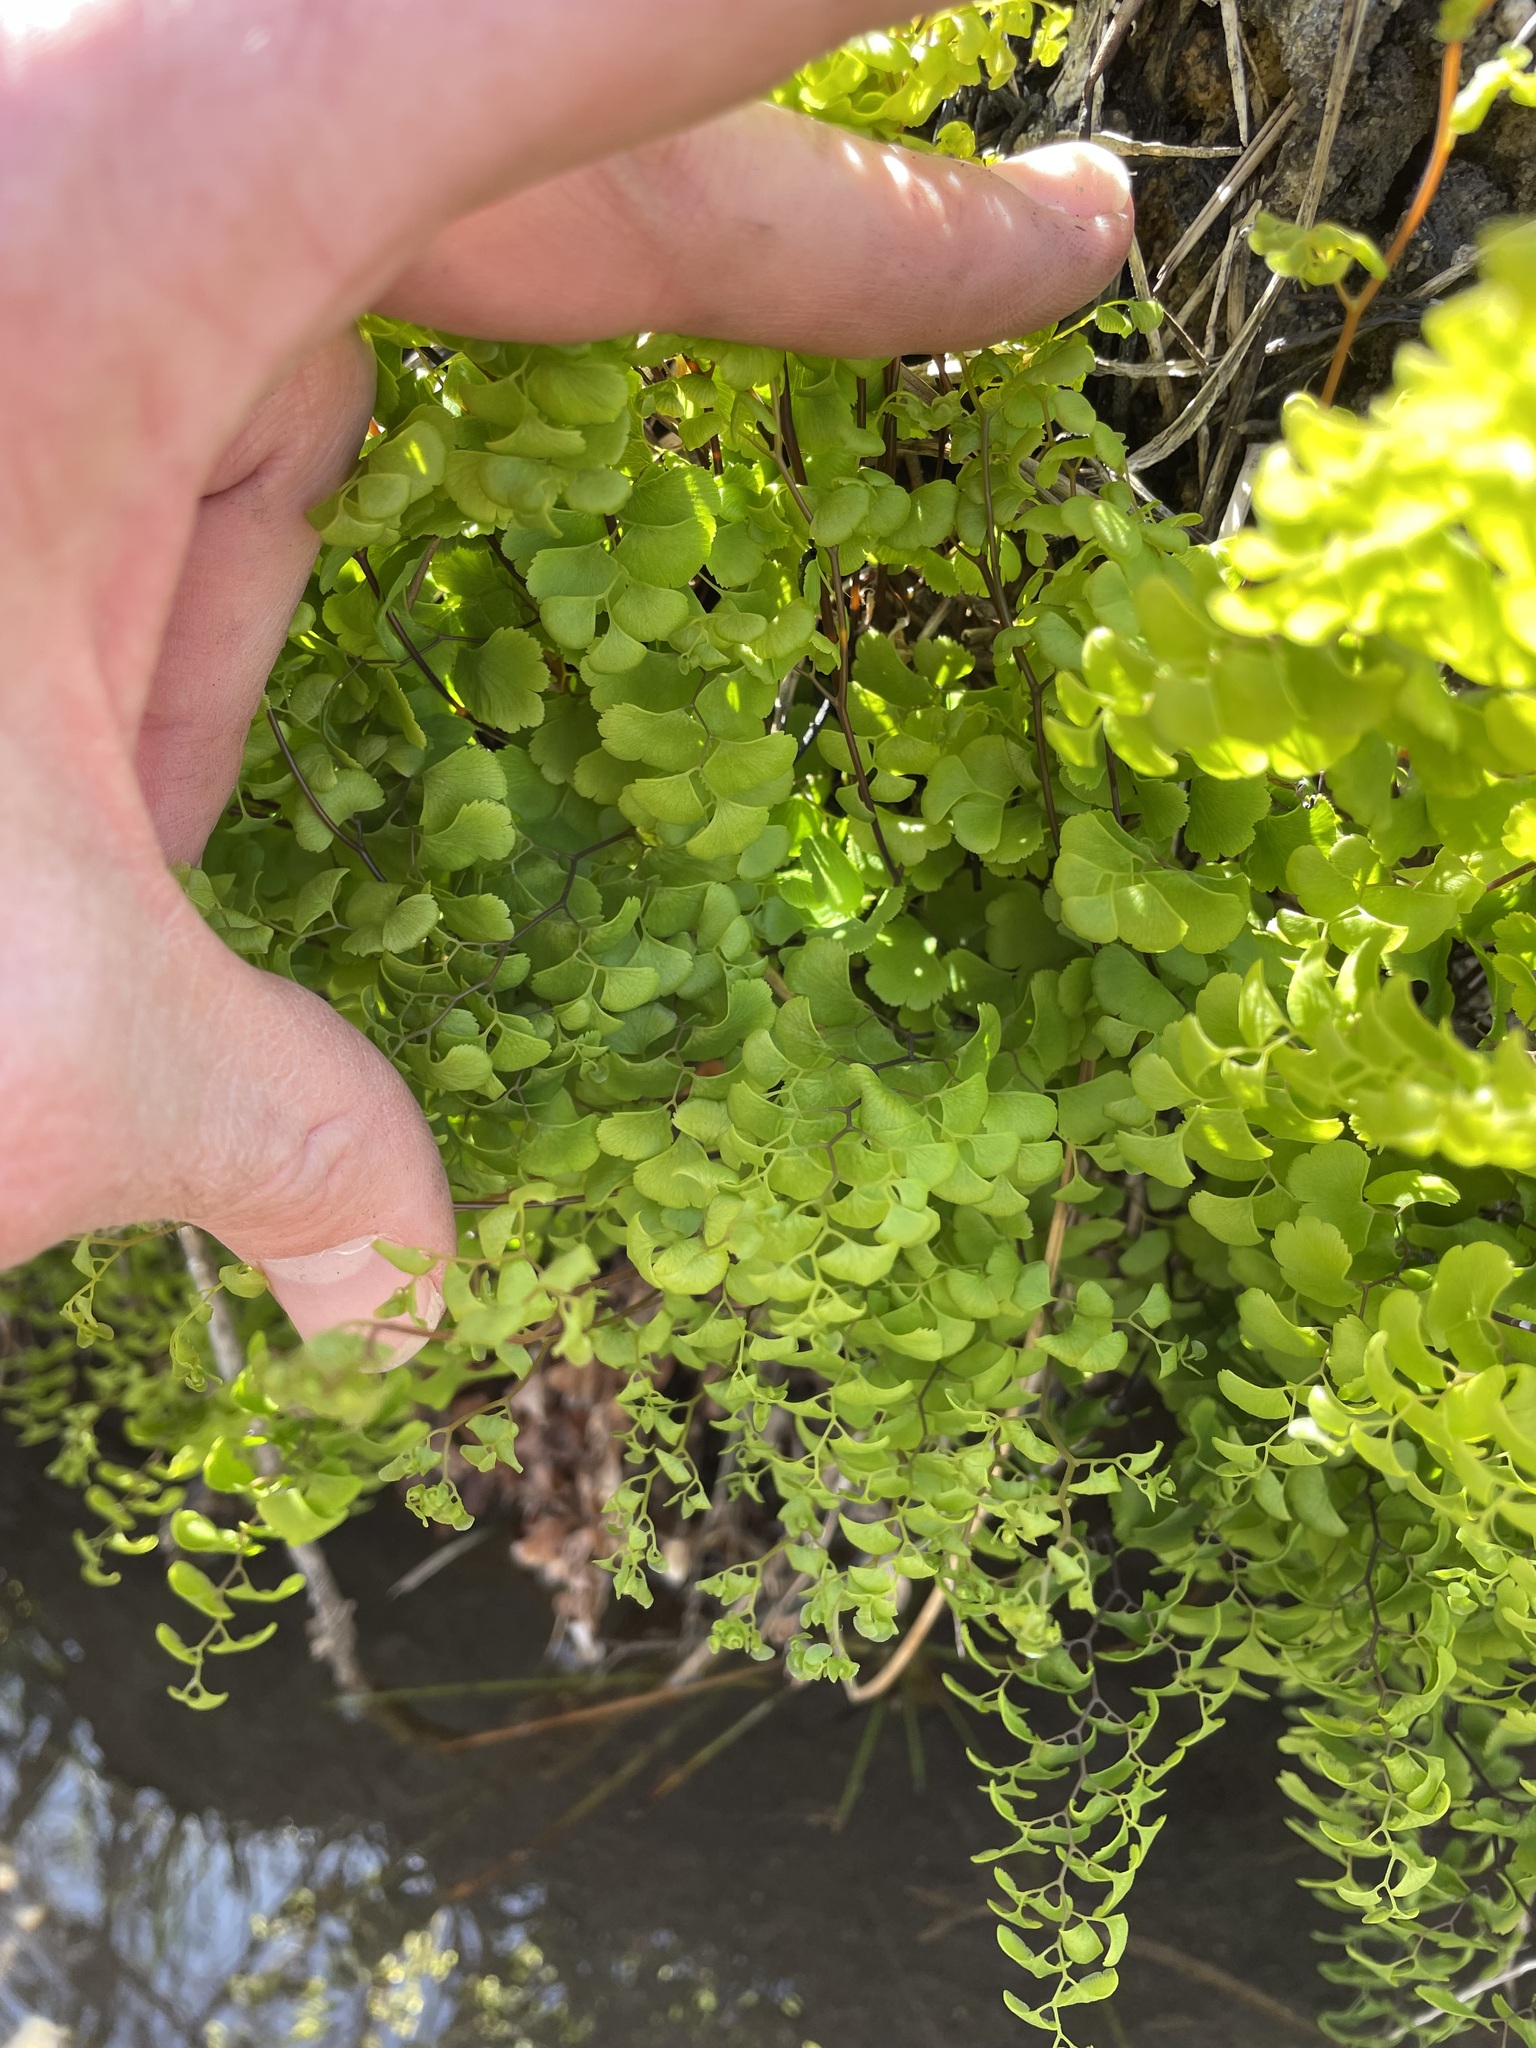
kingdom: Plantae
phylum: Tracheophyta
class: Polypodiopsida
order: Polypodiales
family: Pteridaceae
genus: Adiantum
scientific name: Adiantum capillus-veneris
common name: Maidenhair fern
